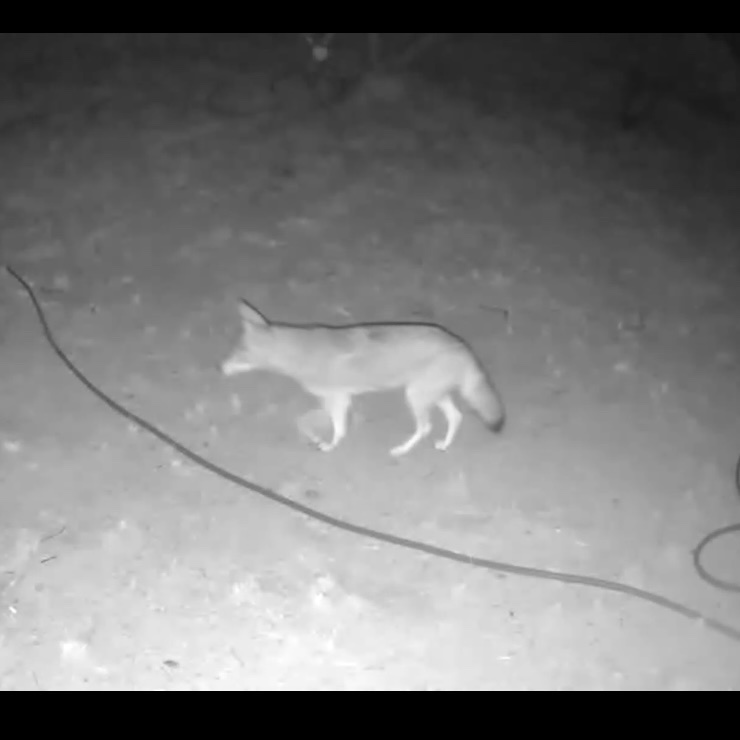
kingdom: Animalia
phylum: Chordata
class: Mammalia
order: Carnivora
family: Canidae
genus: Canis
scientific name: Canis latrans
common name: Coyote
